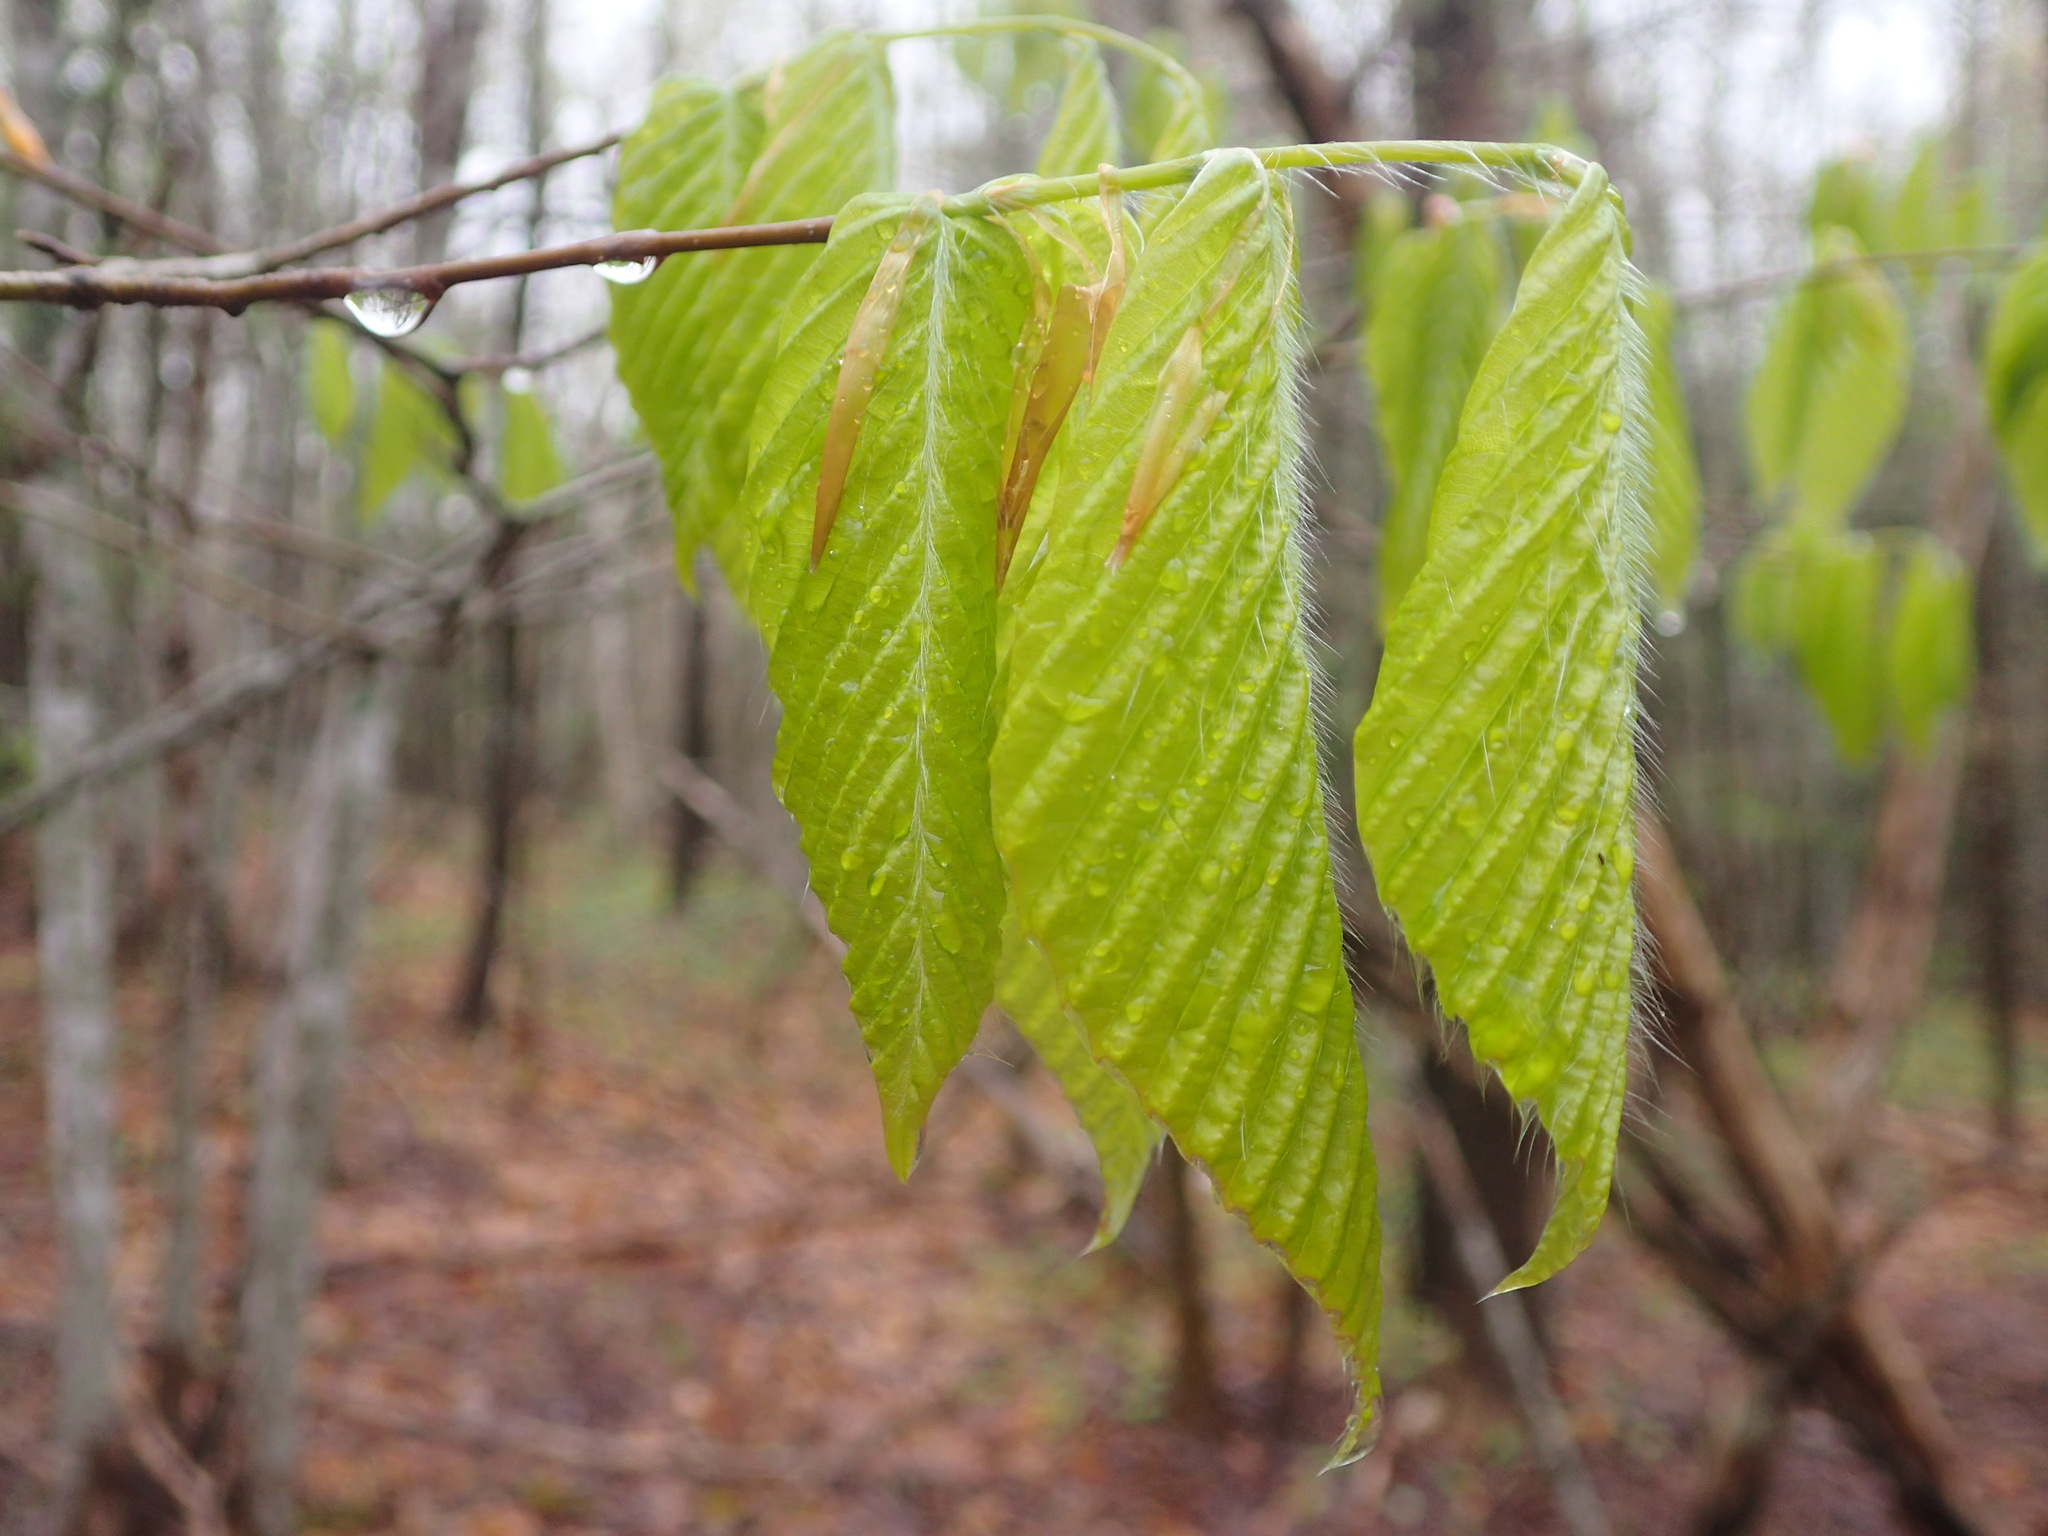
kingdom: Plantae
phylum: Tracheophyta
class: Magnoliopsida
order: Fagales
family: Fagaceae
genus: Fagus
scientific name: Fagus grandifolia
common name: American beech
